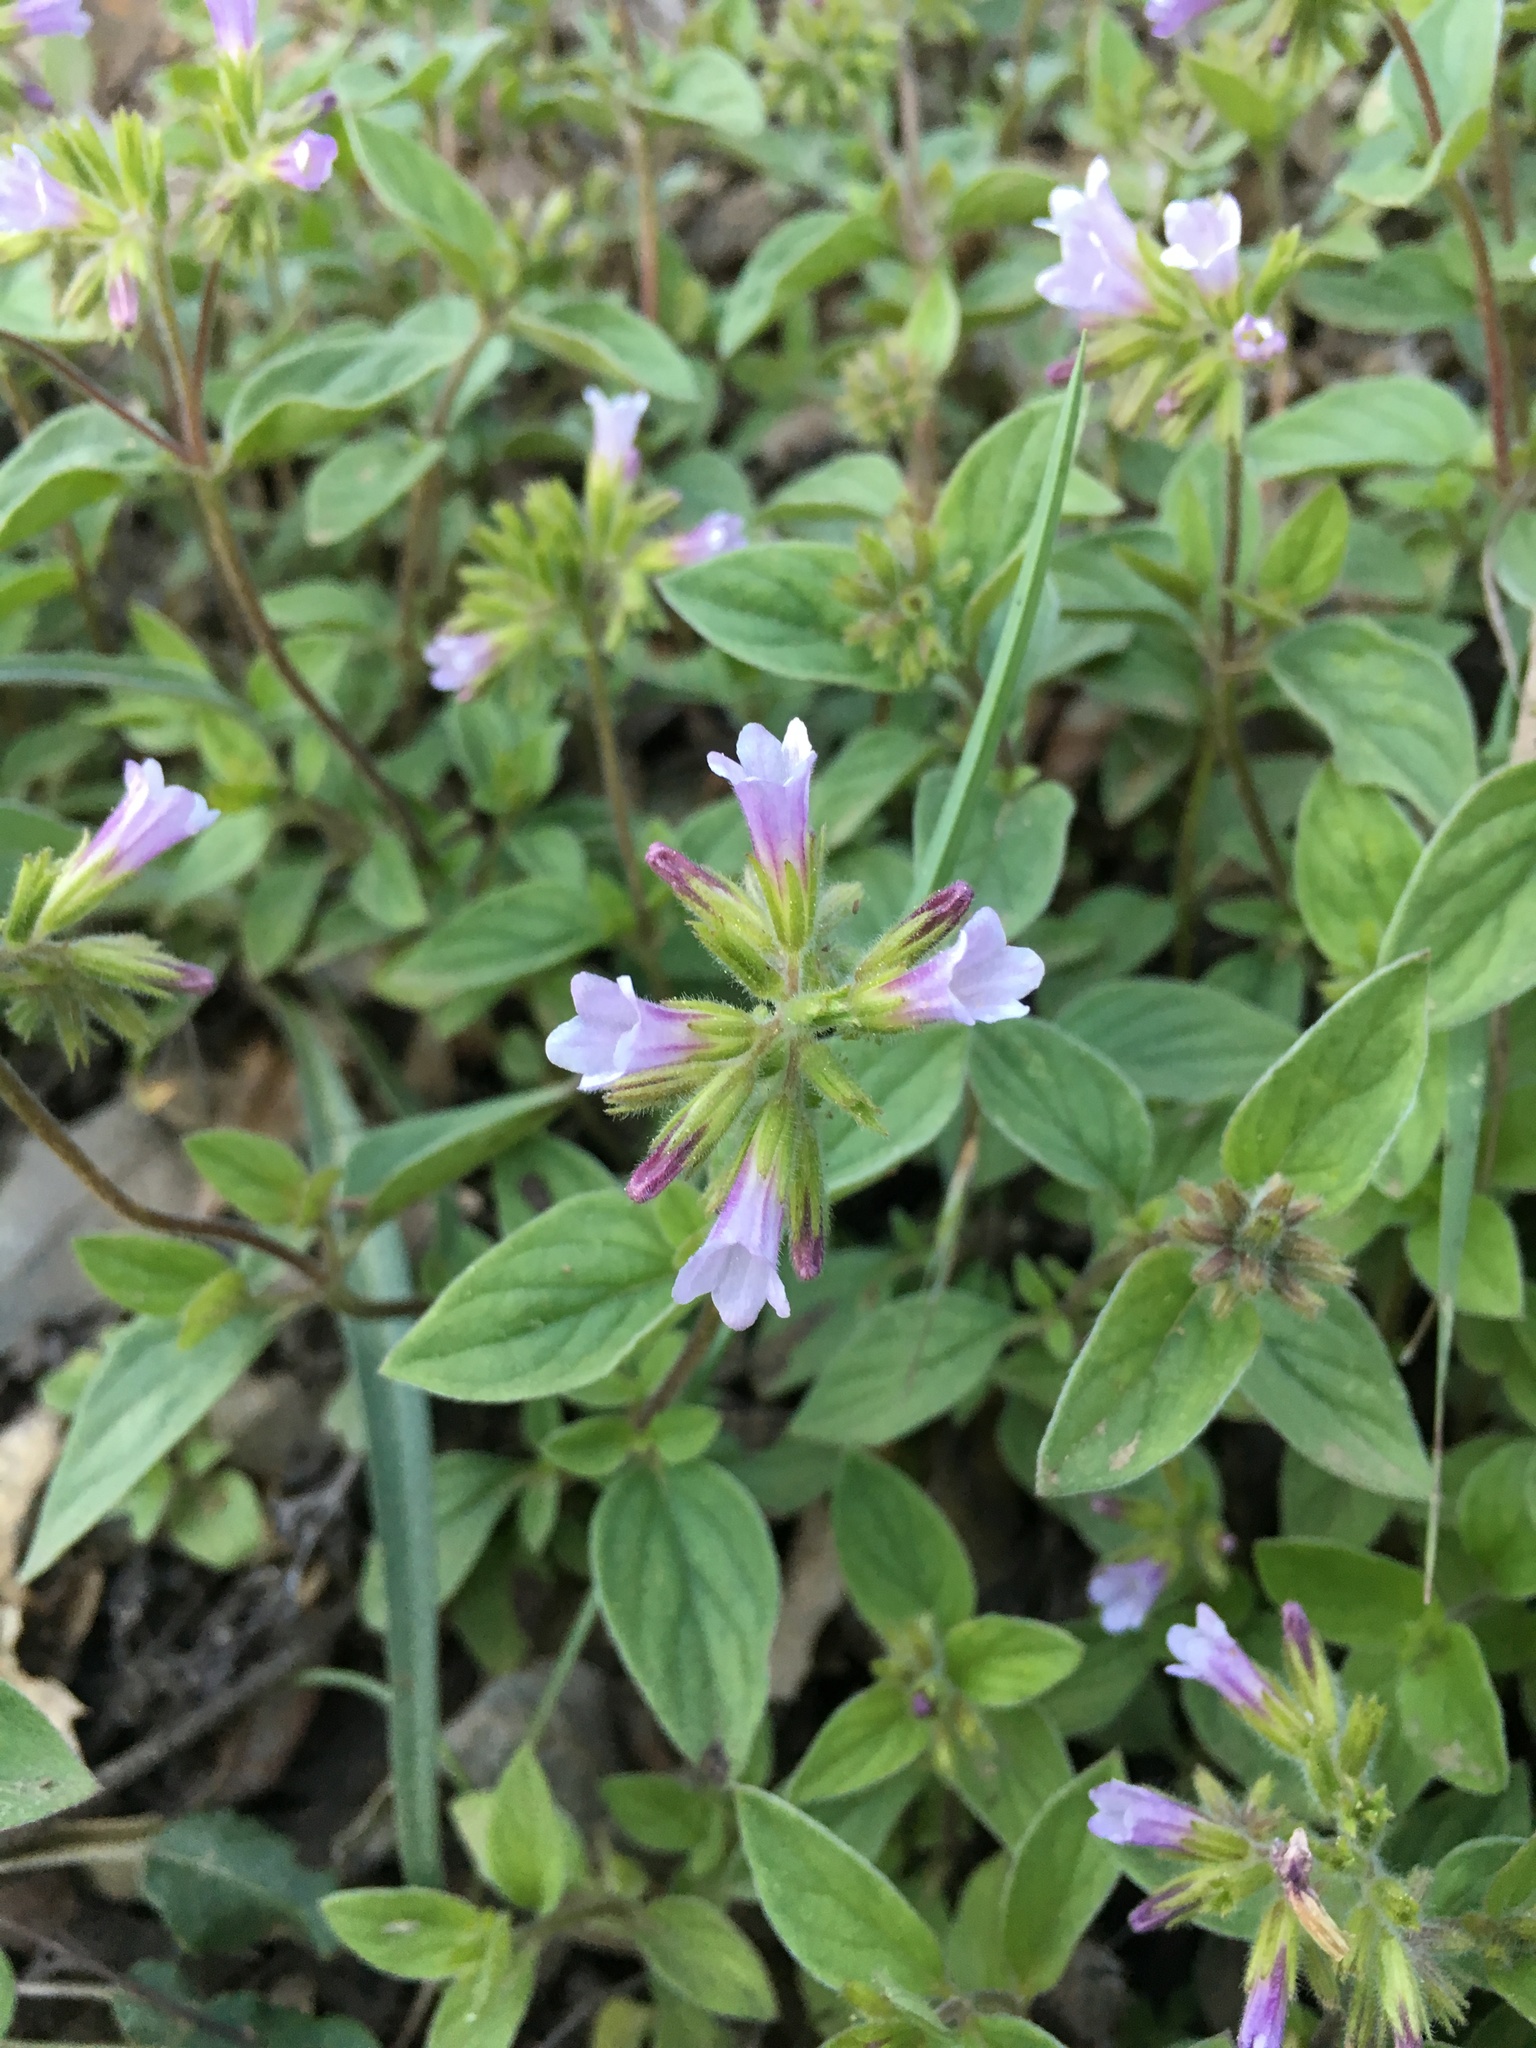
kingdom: Plantae
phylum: Tracheophyta
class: Magnoliopsida
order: Boraginales
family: Hydrophyllaceae
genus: Draperia
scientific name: Draperia systyla
